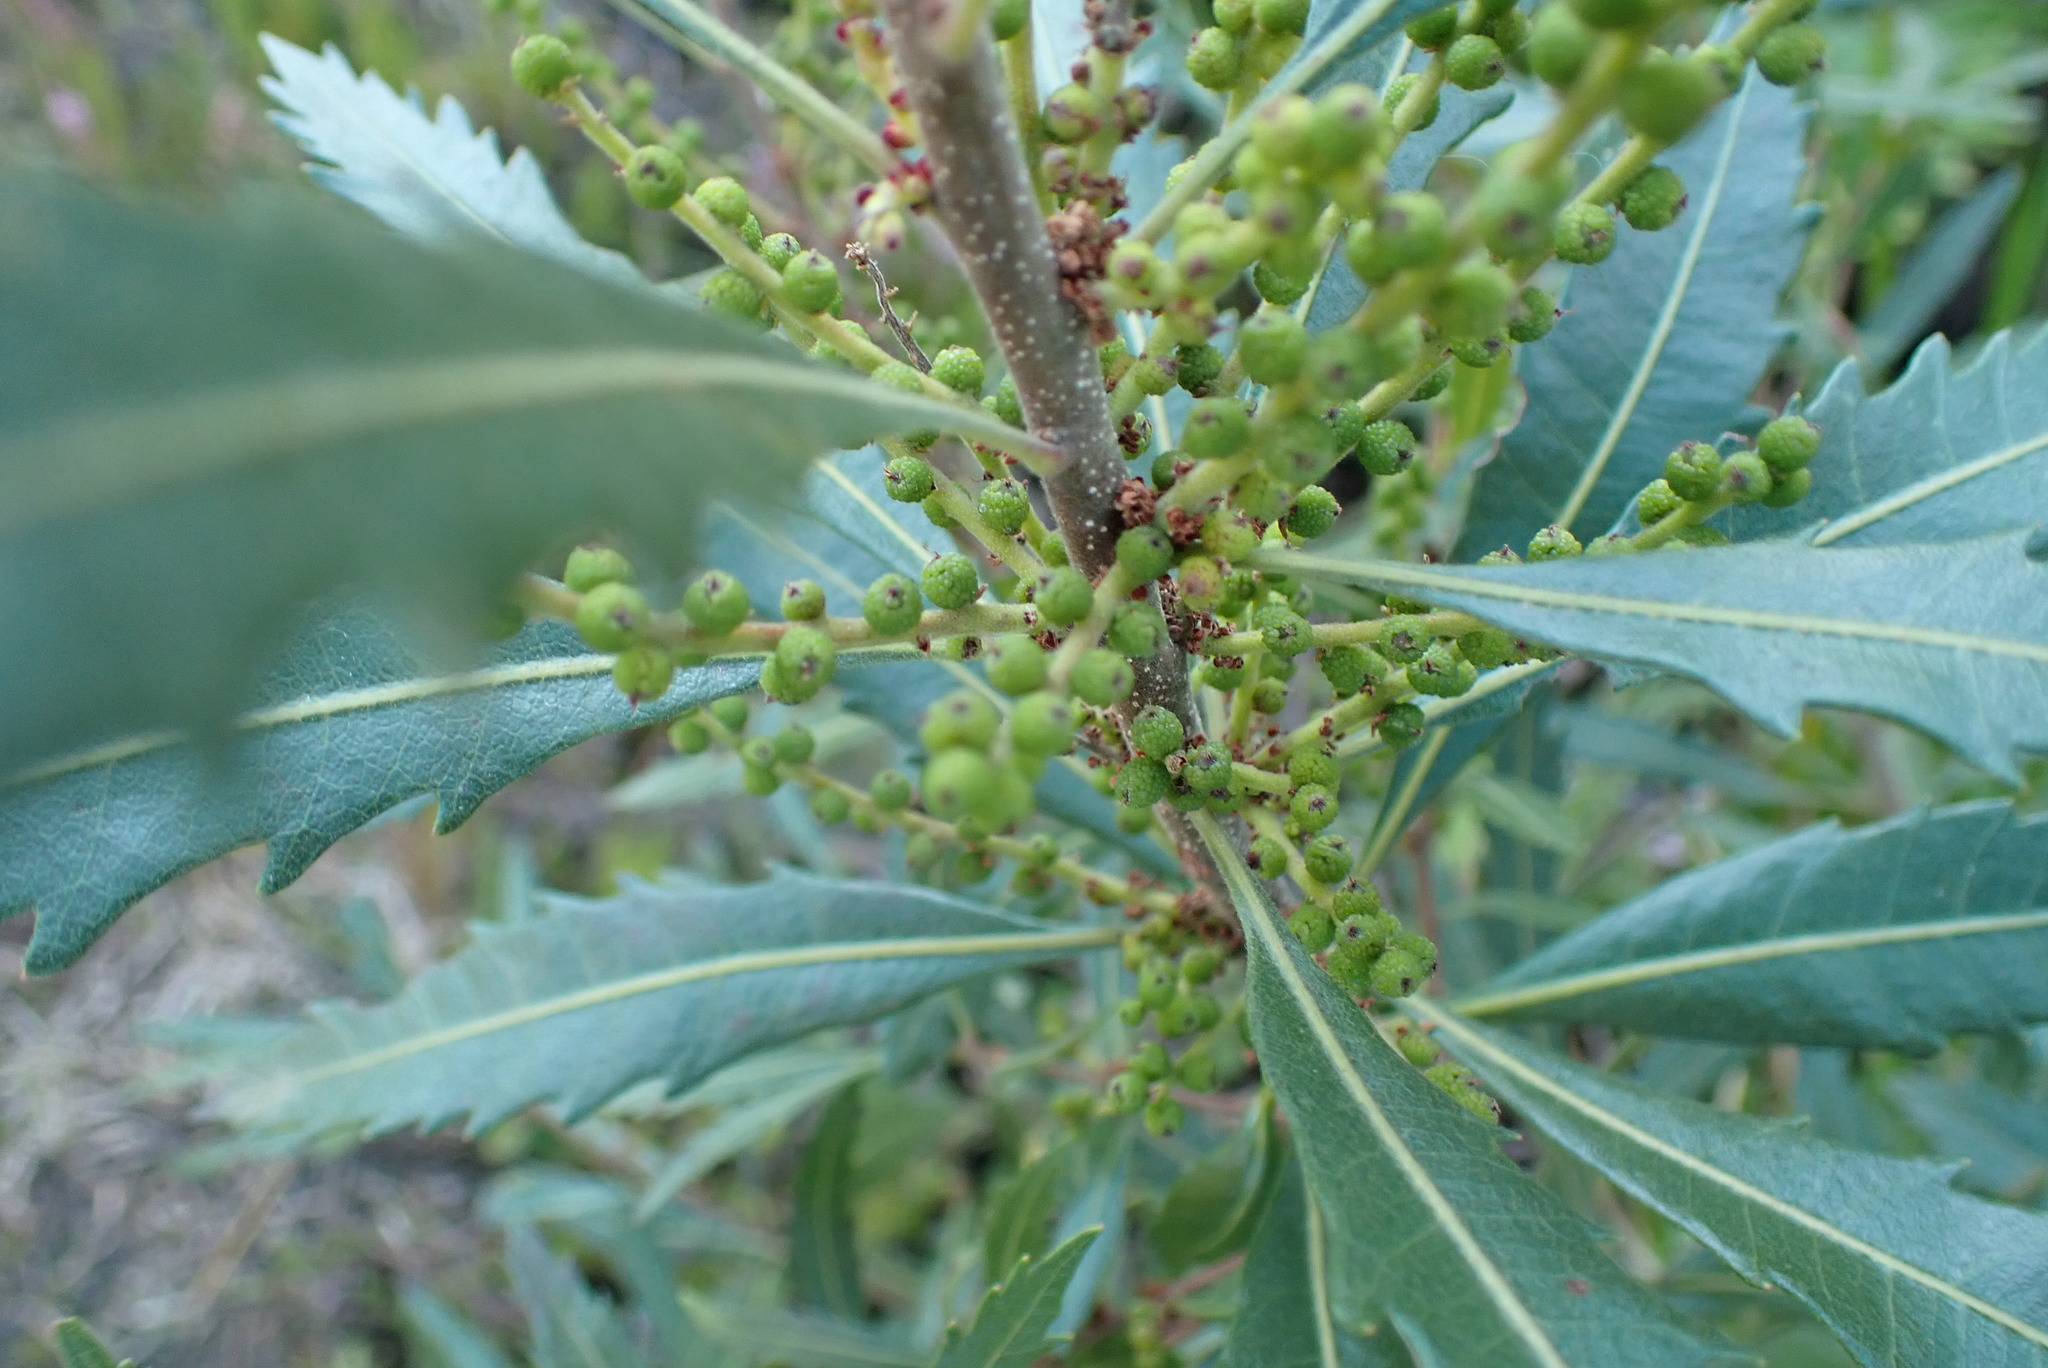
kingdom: Plantae
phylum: Tracheophyta
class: Magnoliopsida
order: Fagales
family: Myricaceae
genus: Morella
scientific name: Morella serrata
